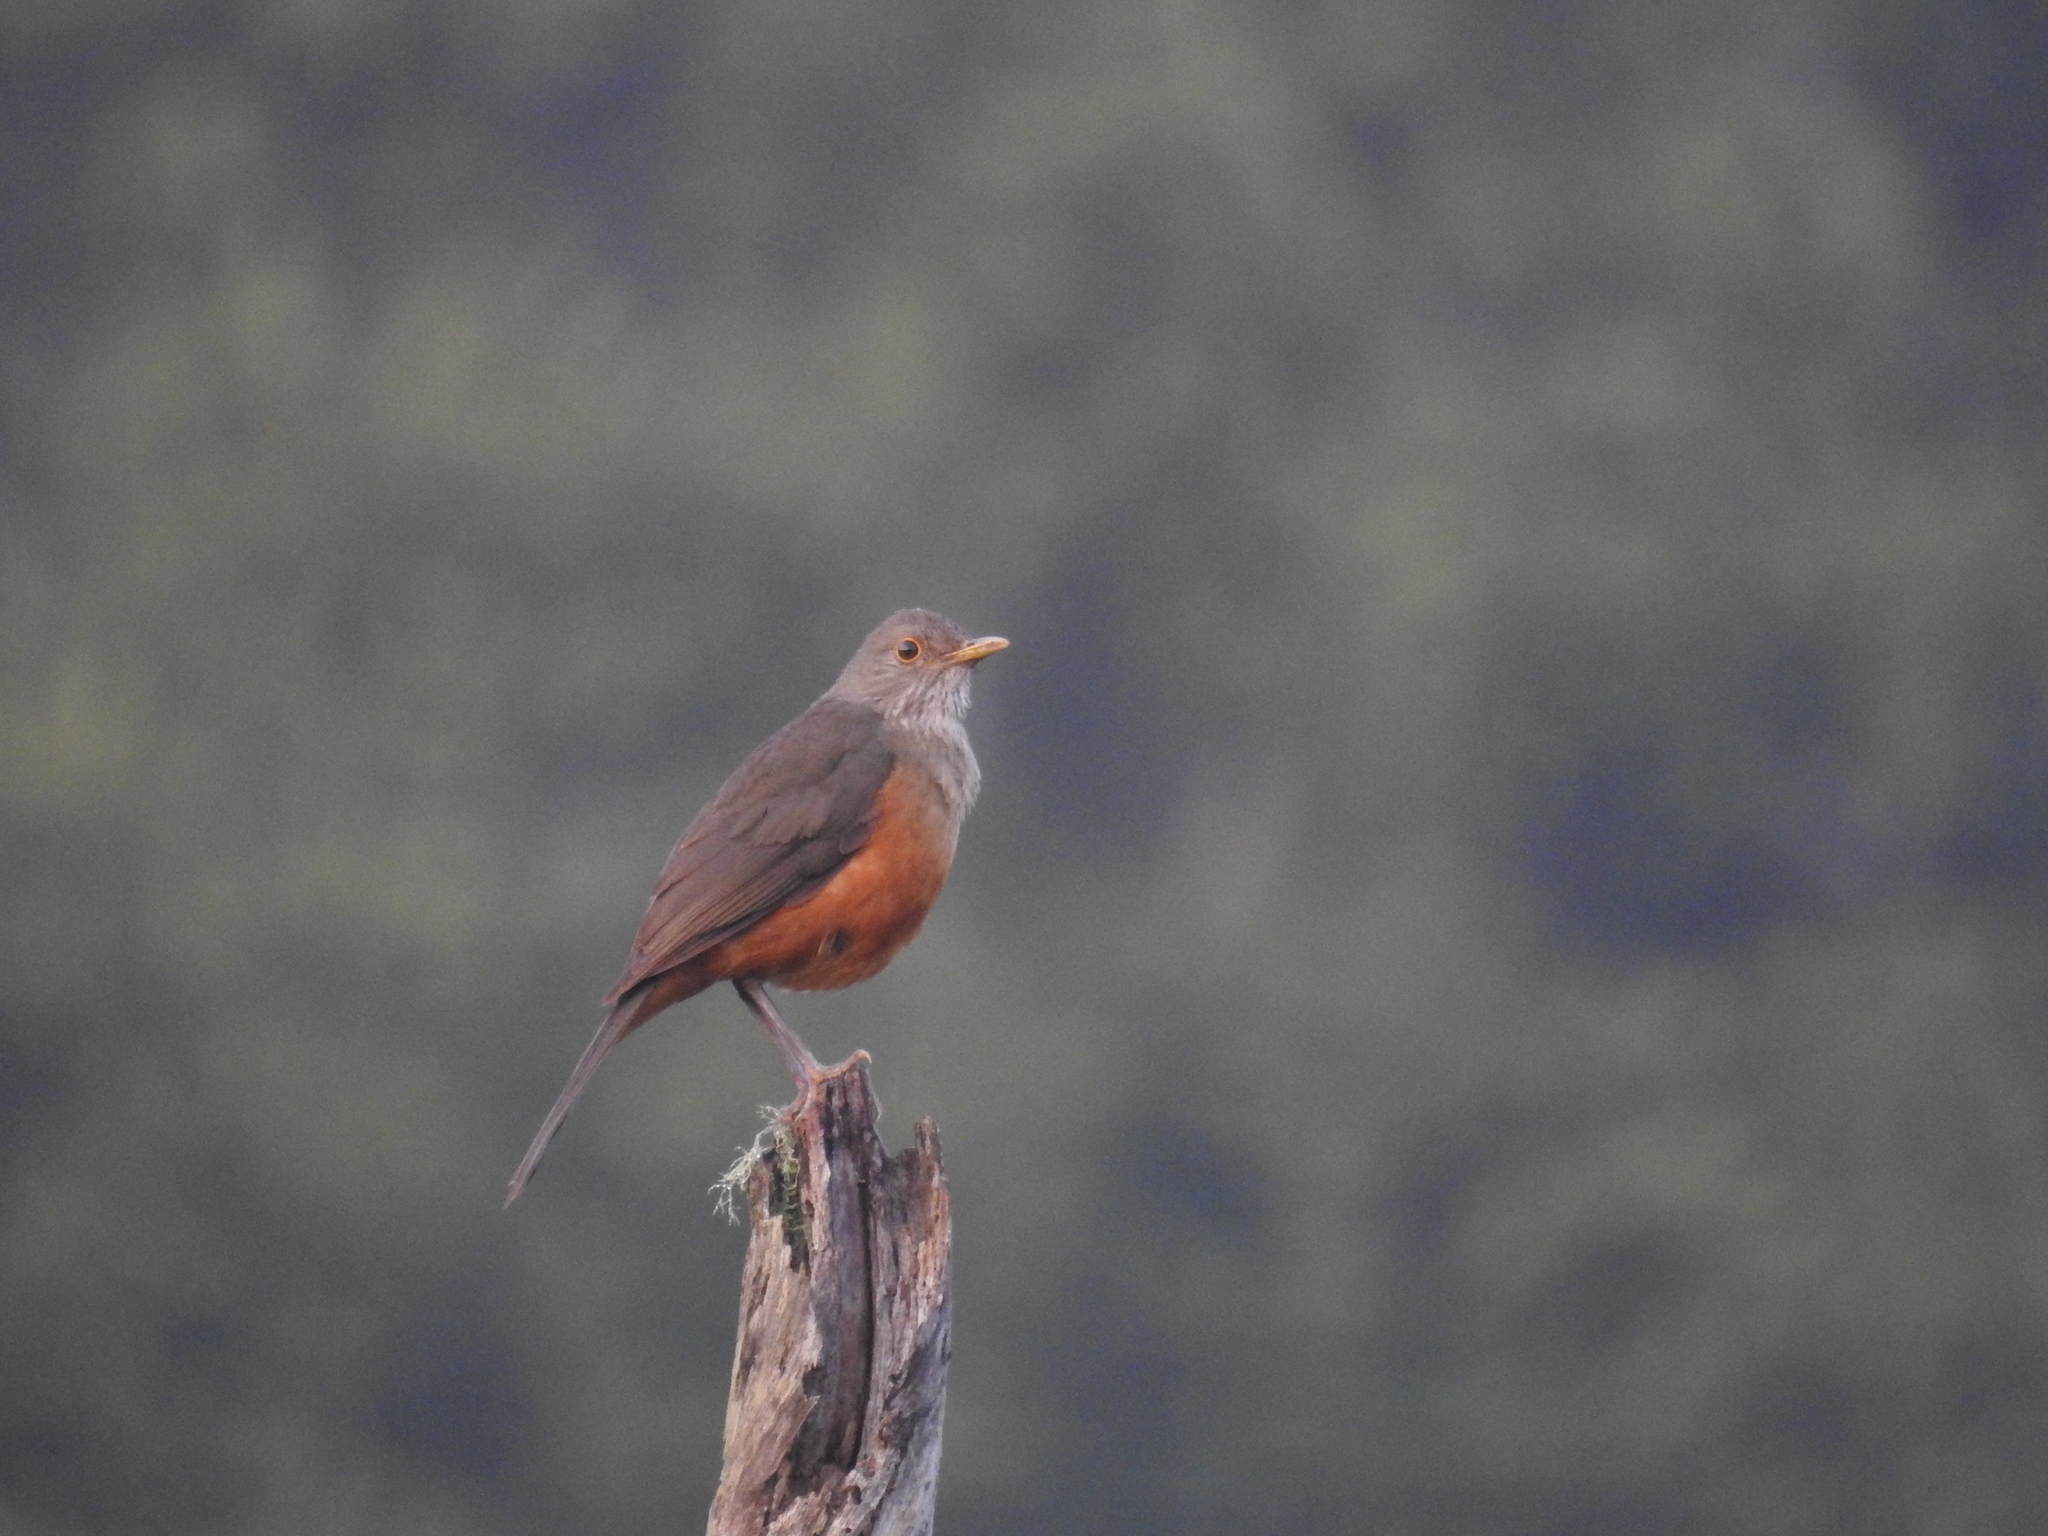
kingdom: Animalia
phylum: Chordata
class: Aves
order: Passeriformes
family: Turdidae
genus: Turdus
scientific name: Turdus rufiventris
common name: Rufous-bellied thrush
